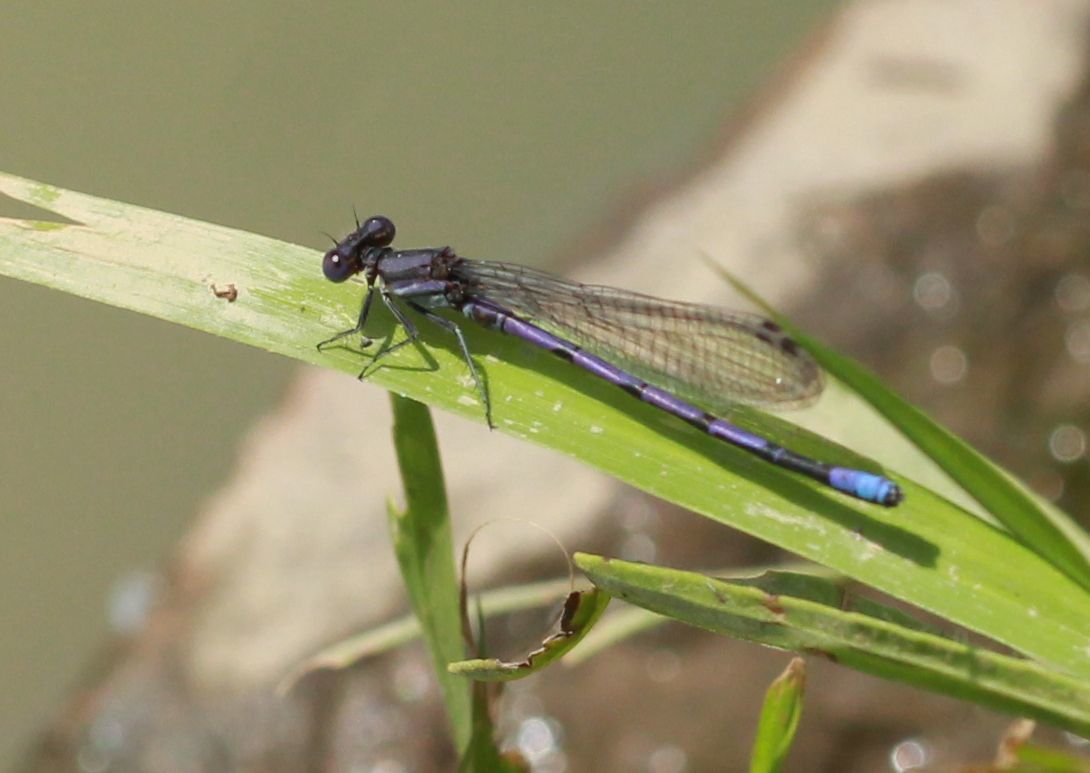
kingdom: Animalia
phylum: Arthropoda
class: Insecta
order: Odonata
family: Coenagrionidae
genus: Argia
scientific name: Argia fumipennis
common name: Variable dancer
